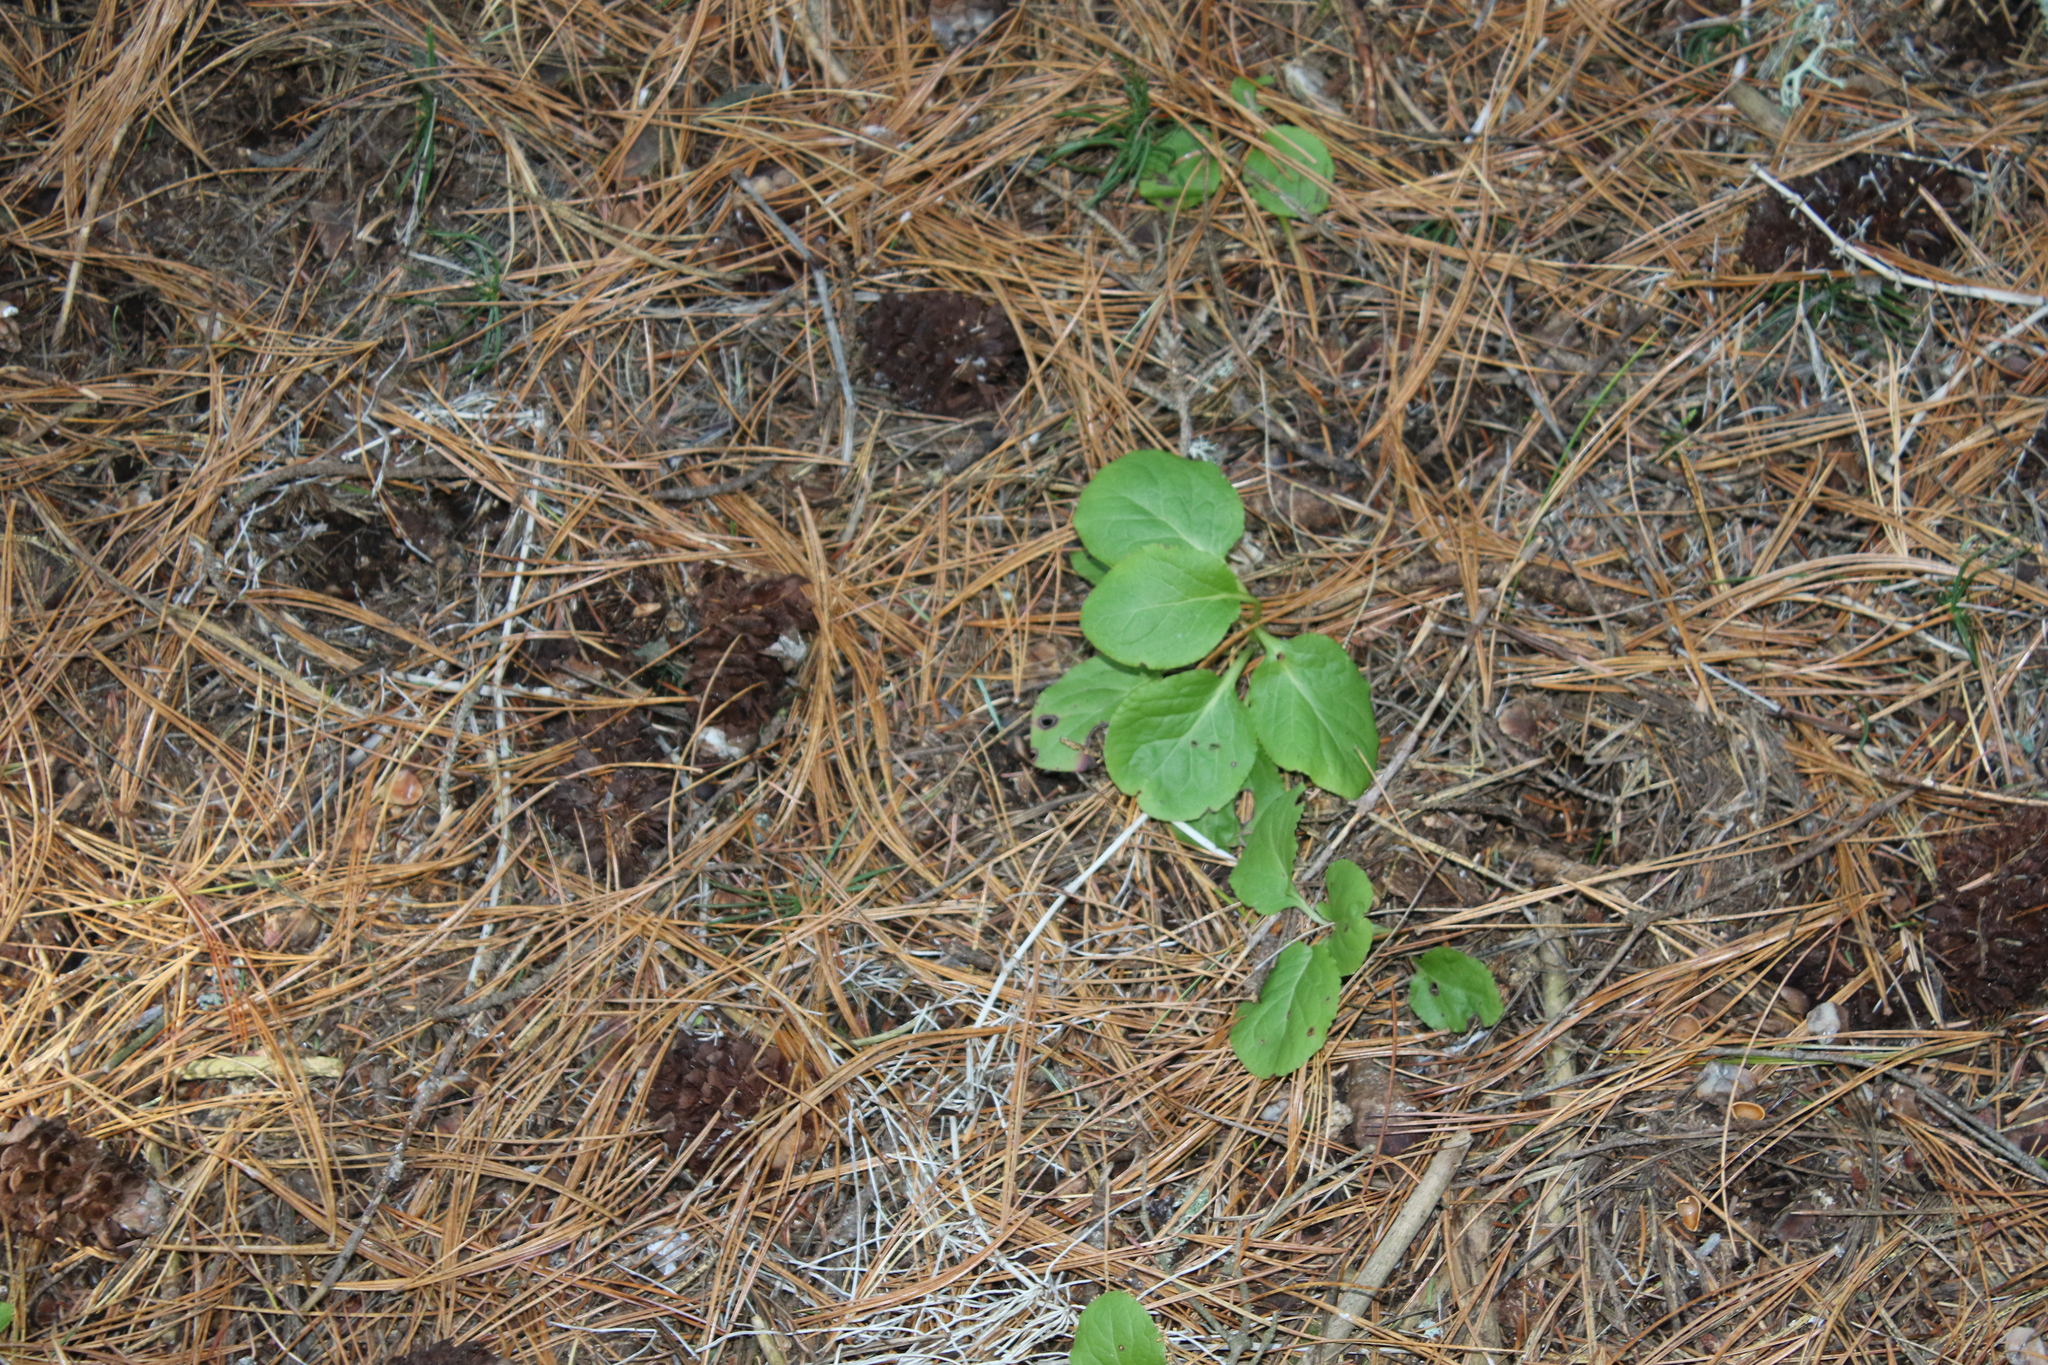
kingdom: Plantae
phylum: Tracheophyta
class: Magnoliopsida
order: Ericales
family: Ericaceae
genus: Orthilia
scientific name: Orthilia secunda
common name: One-sided orthilia
